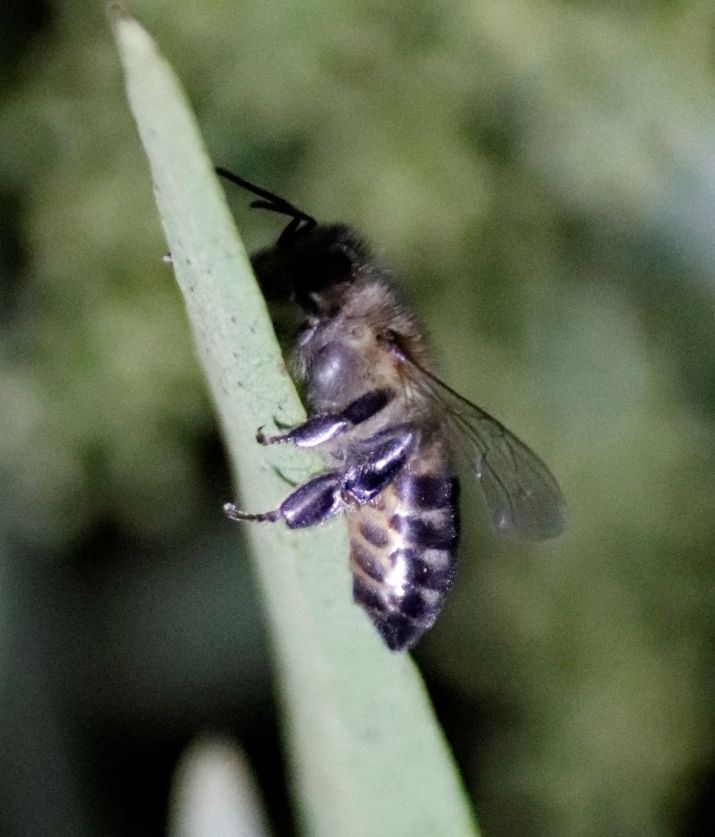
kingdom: Animalia
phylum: Arthropoda
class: Insecta
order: Hymenoptera
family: Apidae
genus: Apis
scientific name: Apis mellifera
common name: Honey bee
